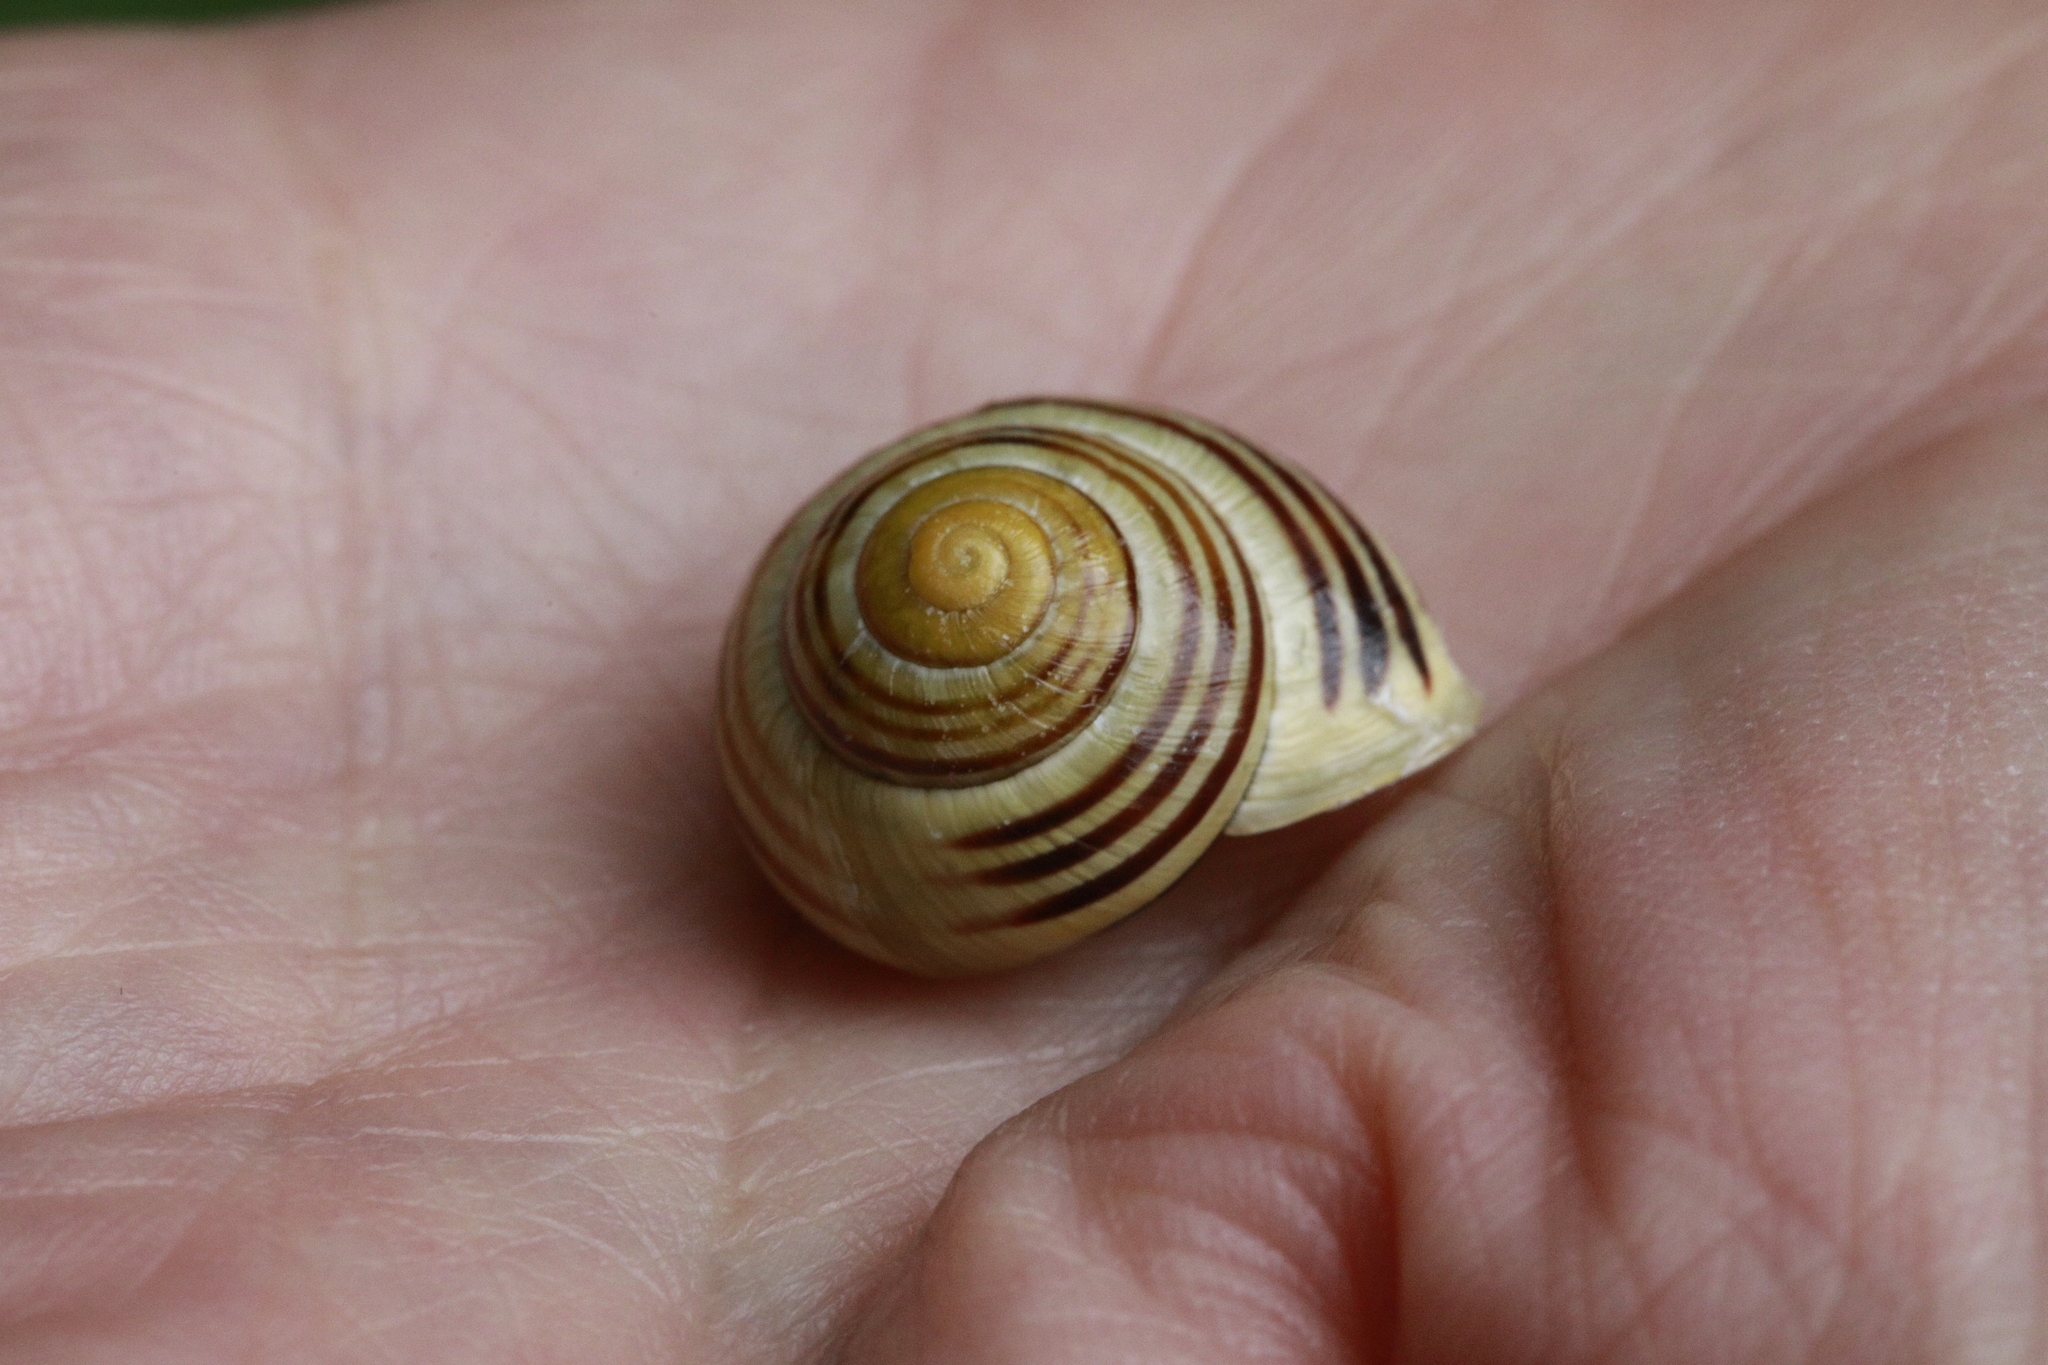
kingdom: Animalia
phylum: Mollusca
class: Gastropoda
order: Stylommatophora
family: Helicidae
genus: Cepaea
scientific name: Cepaea hortensis
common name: White-lip gardensnail
